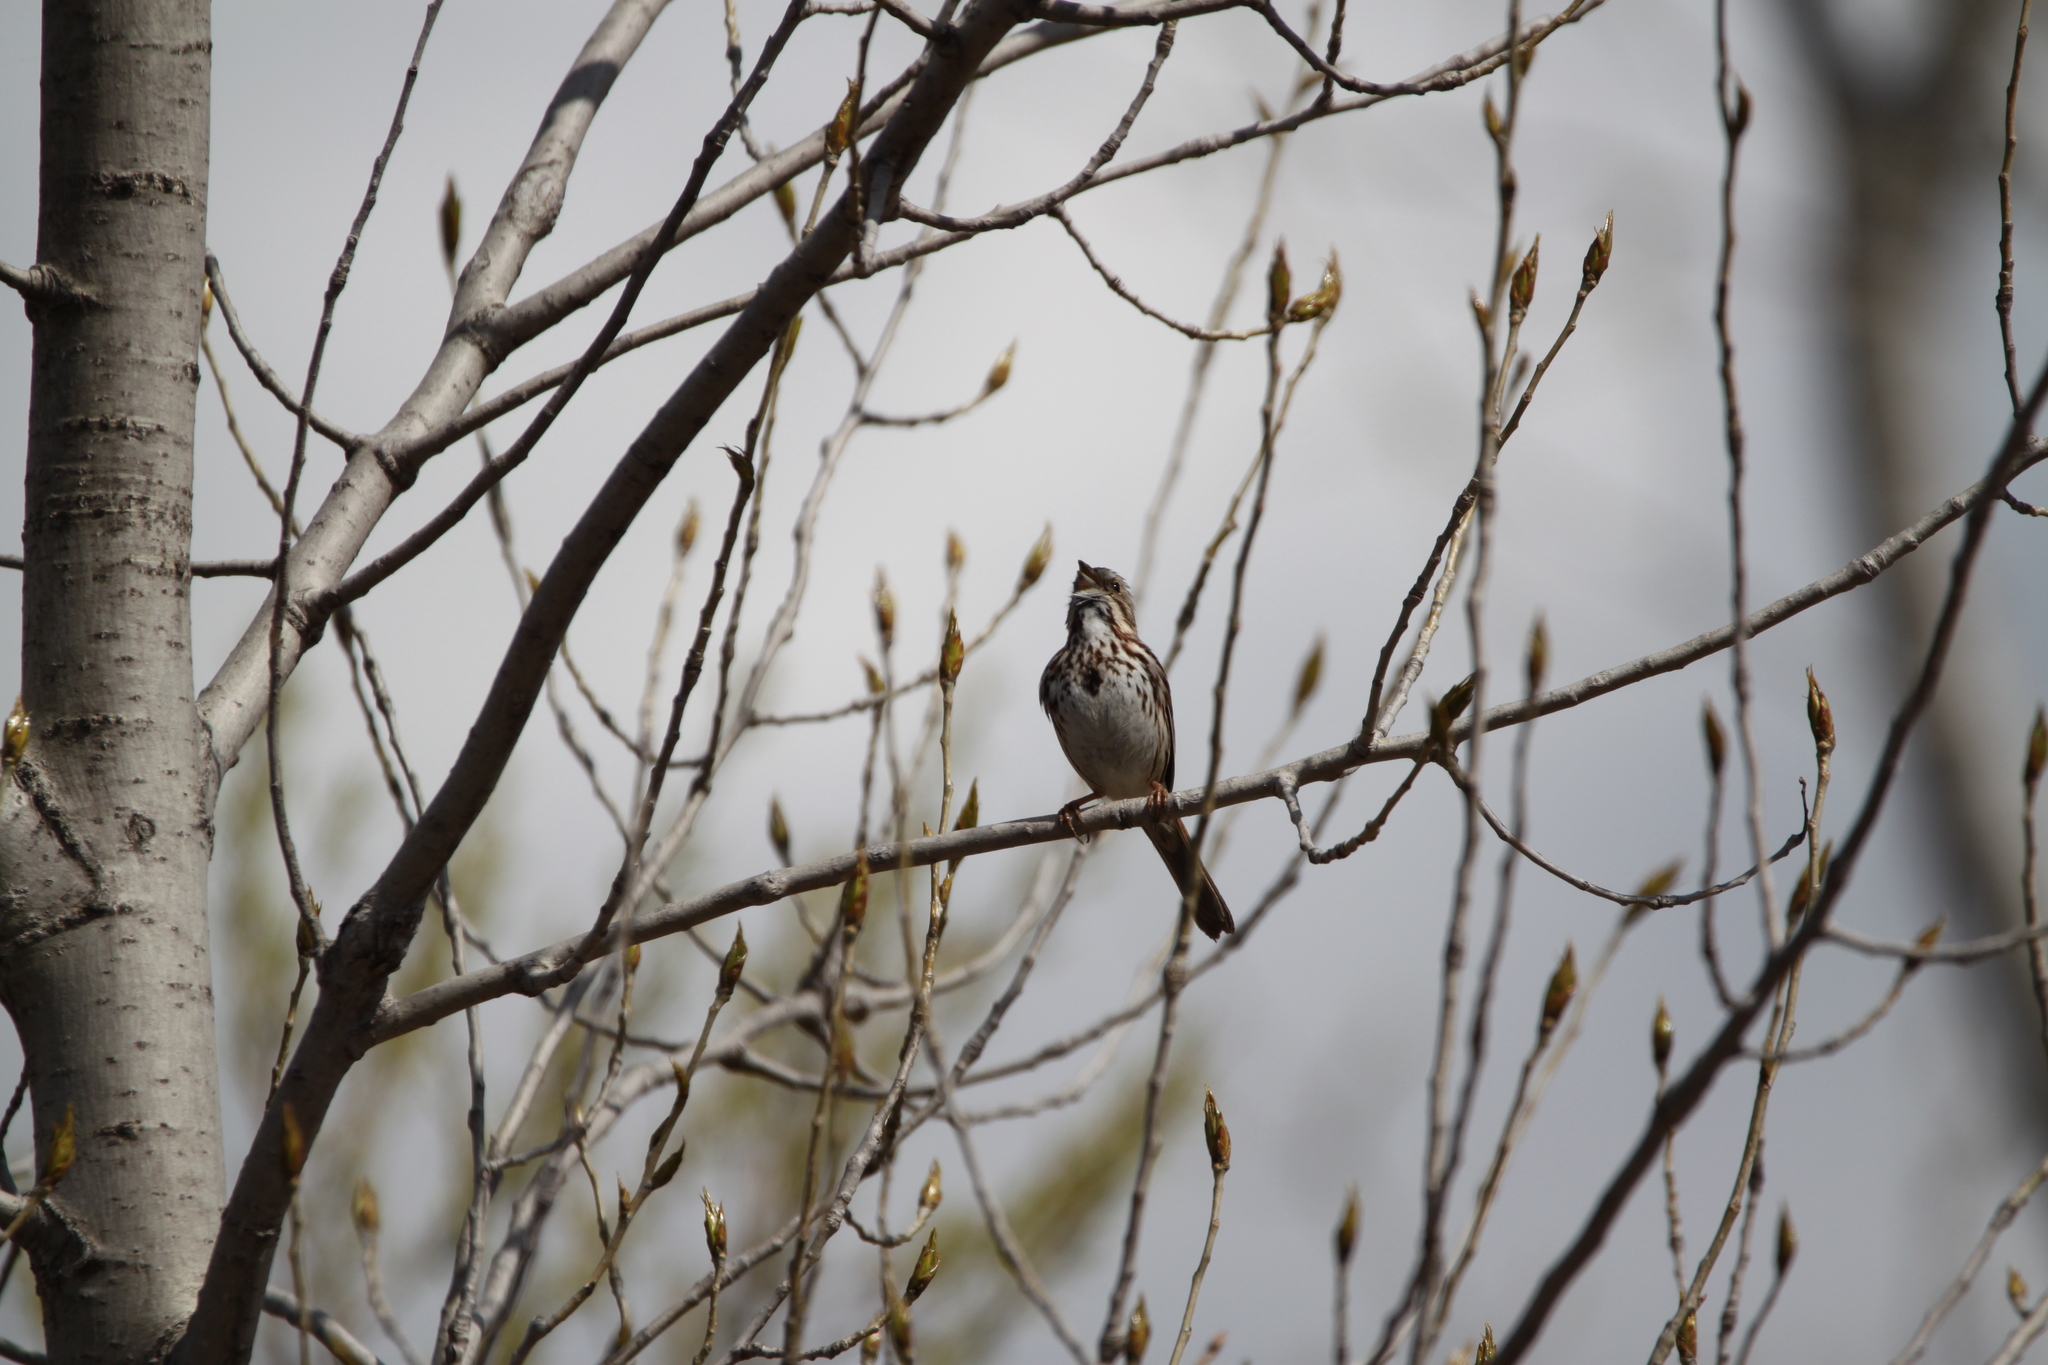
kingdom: Animalia
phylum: Chordata
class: Aves
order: Passeriformes
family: Passerellidae
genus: Melospiza
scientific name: Melospiza melodia
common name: Song sparrow
